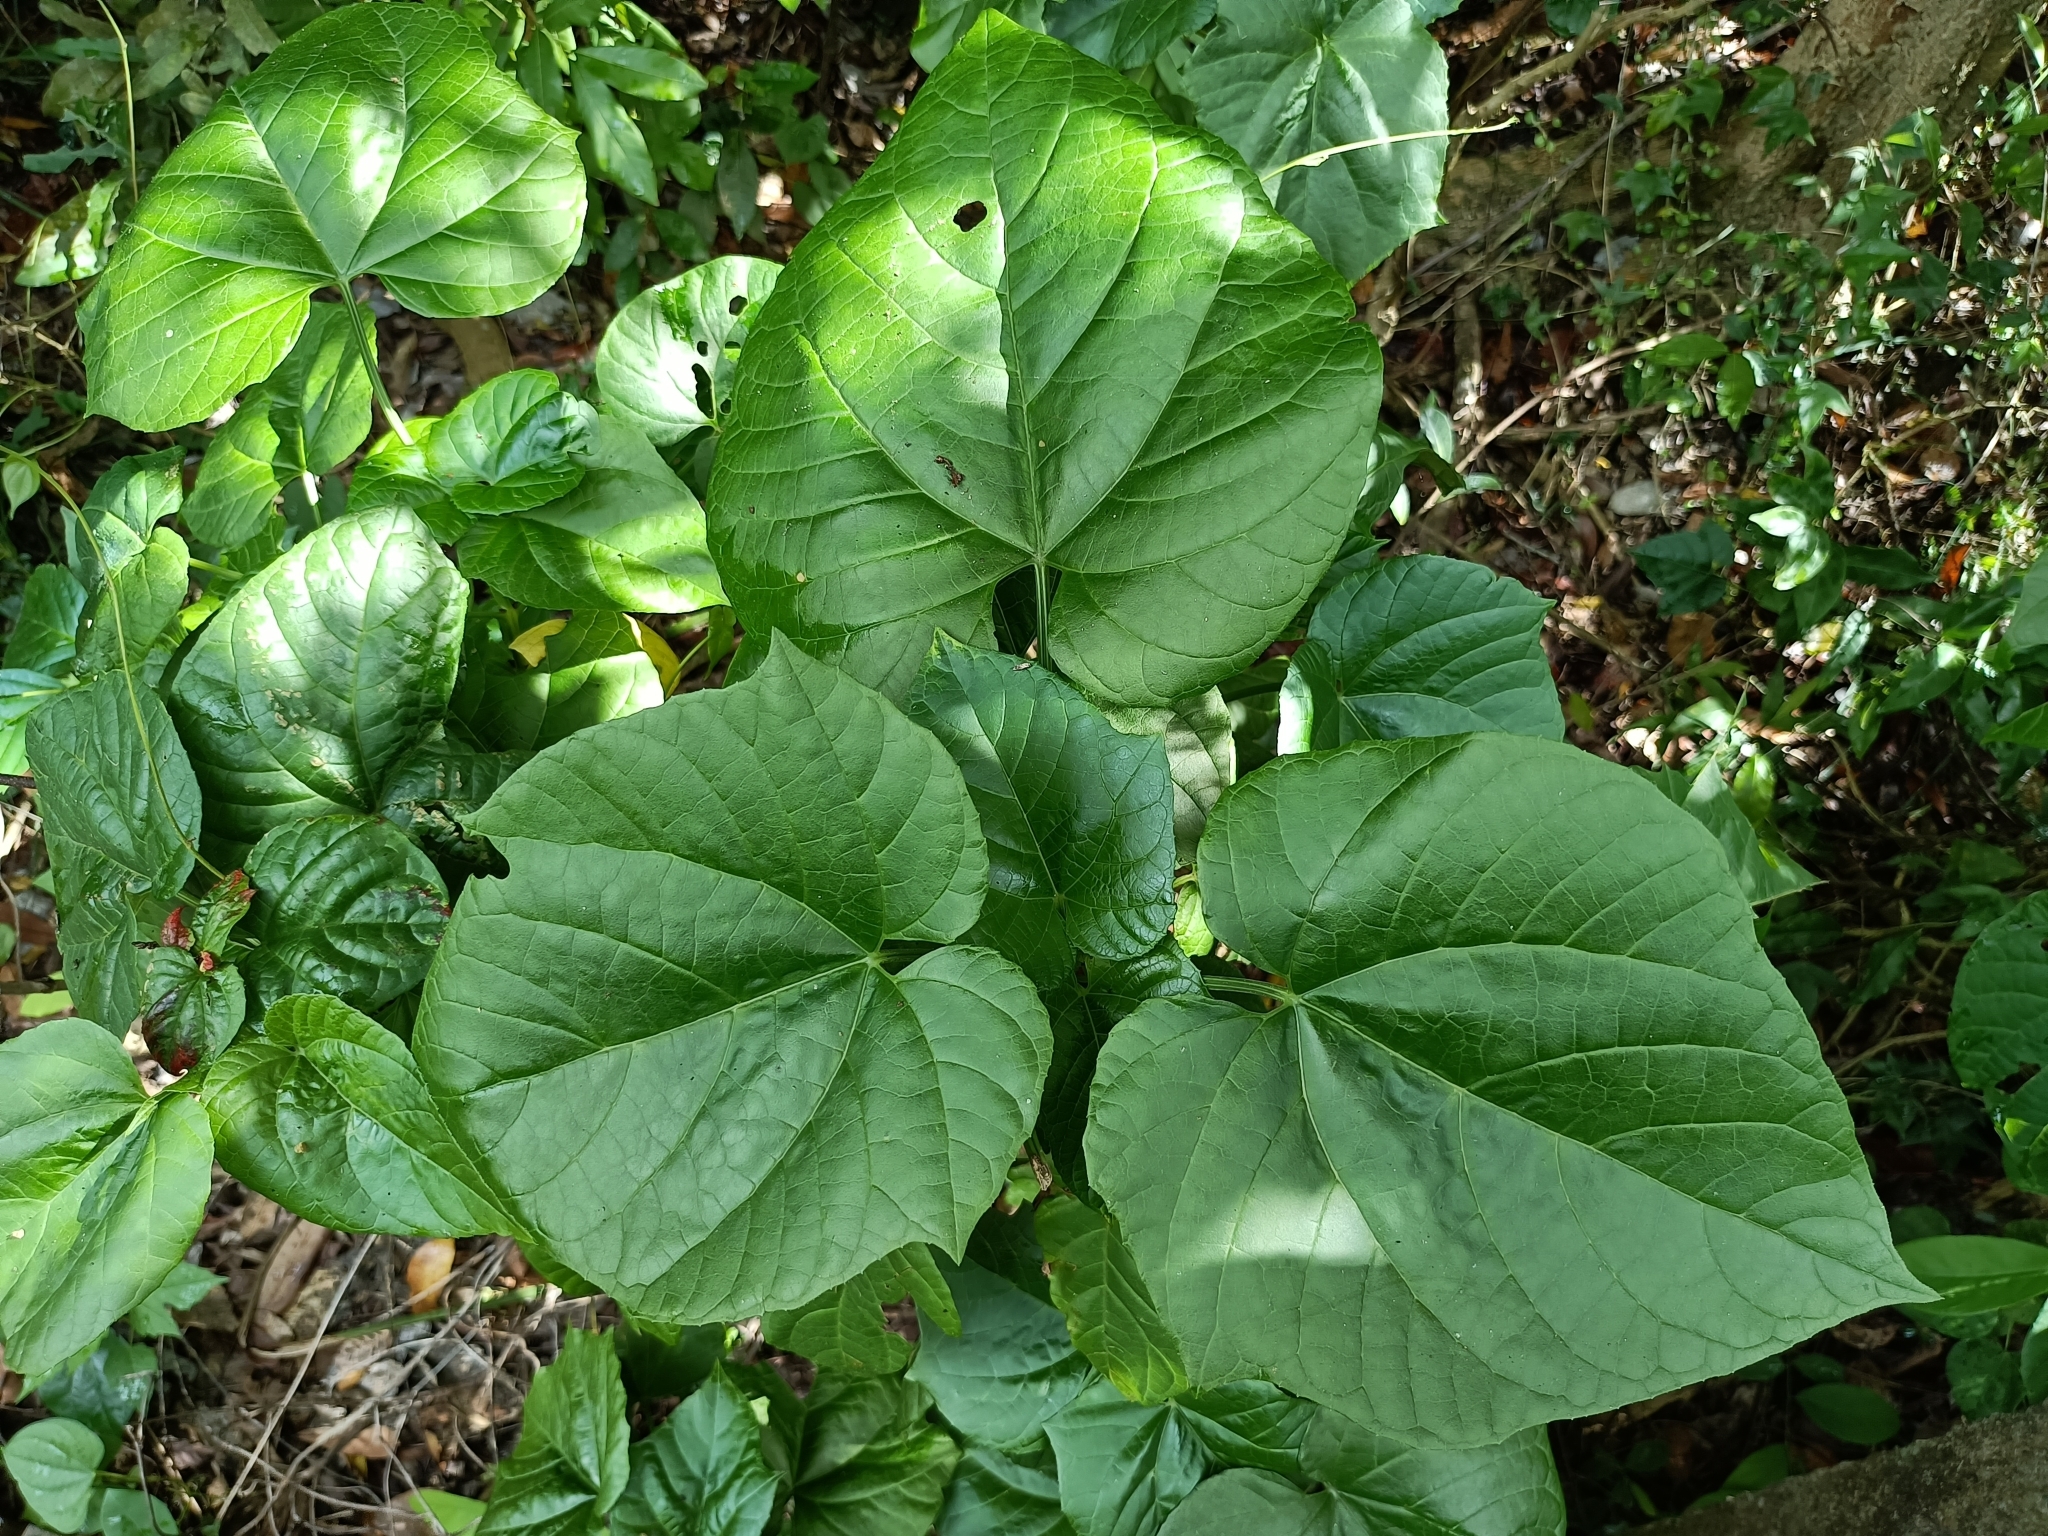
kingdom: Plantae
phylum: Tracheophyta
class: Magnoliopsida
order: Lamiales
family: Lamiaceae
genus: Clerodendrum
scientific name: Clerodendrum japonicum
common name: Japanese glorybower
